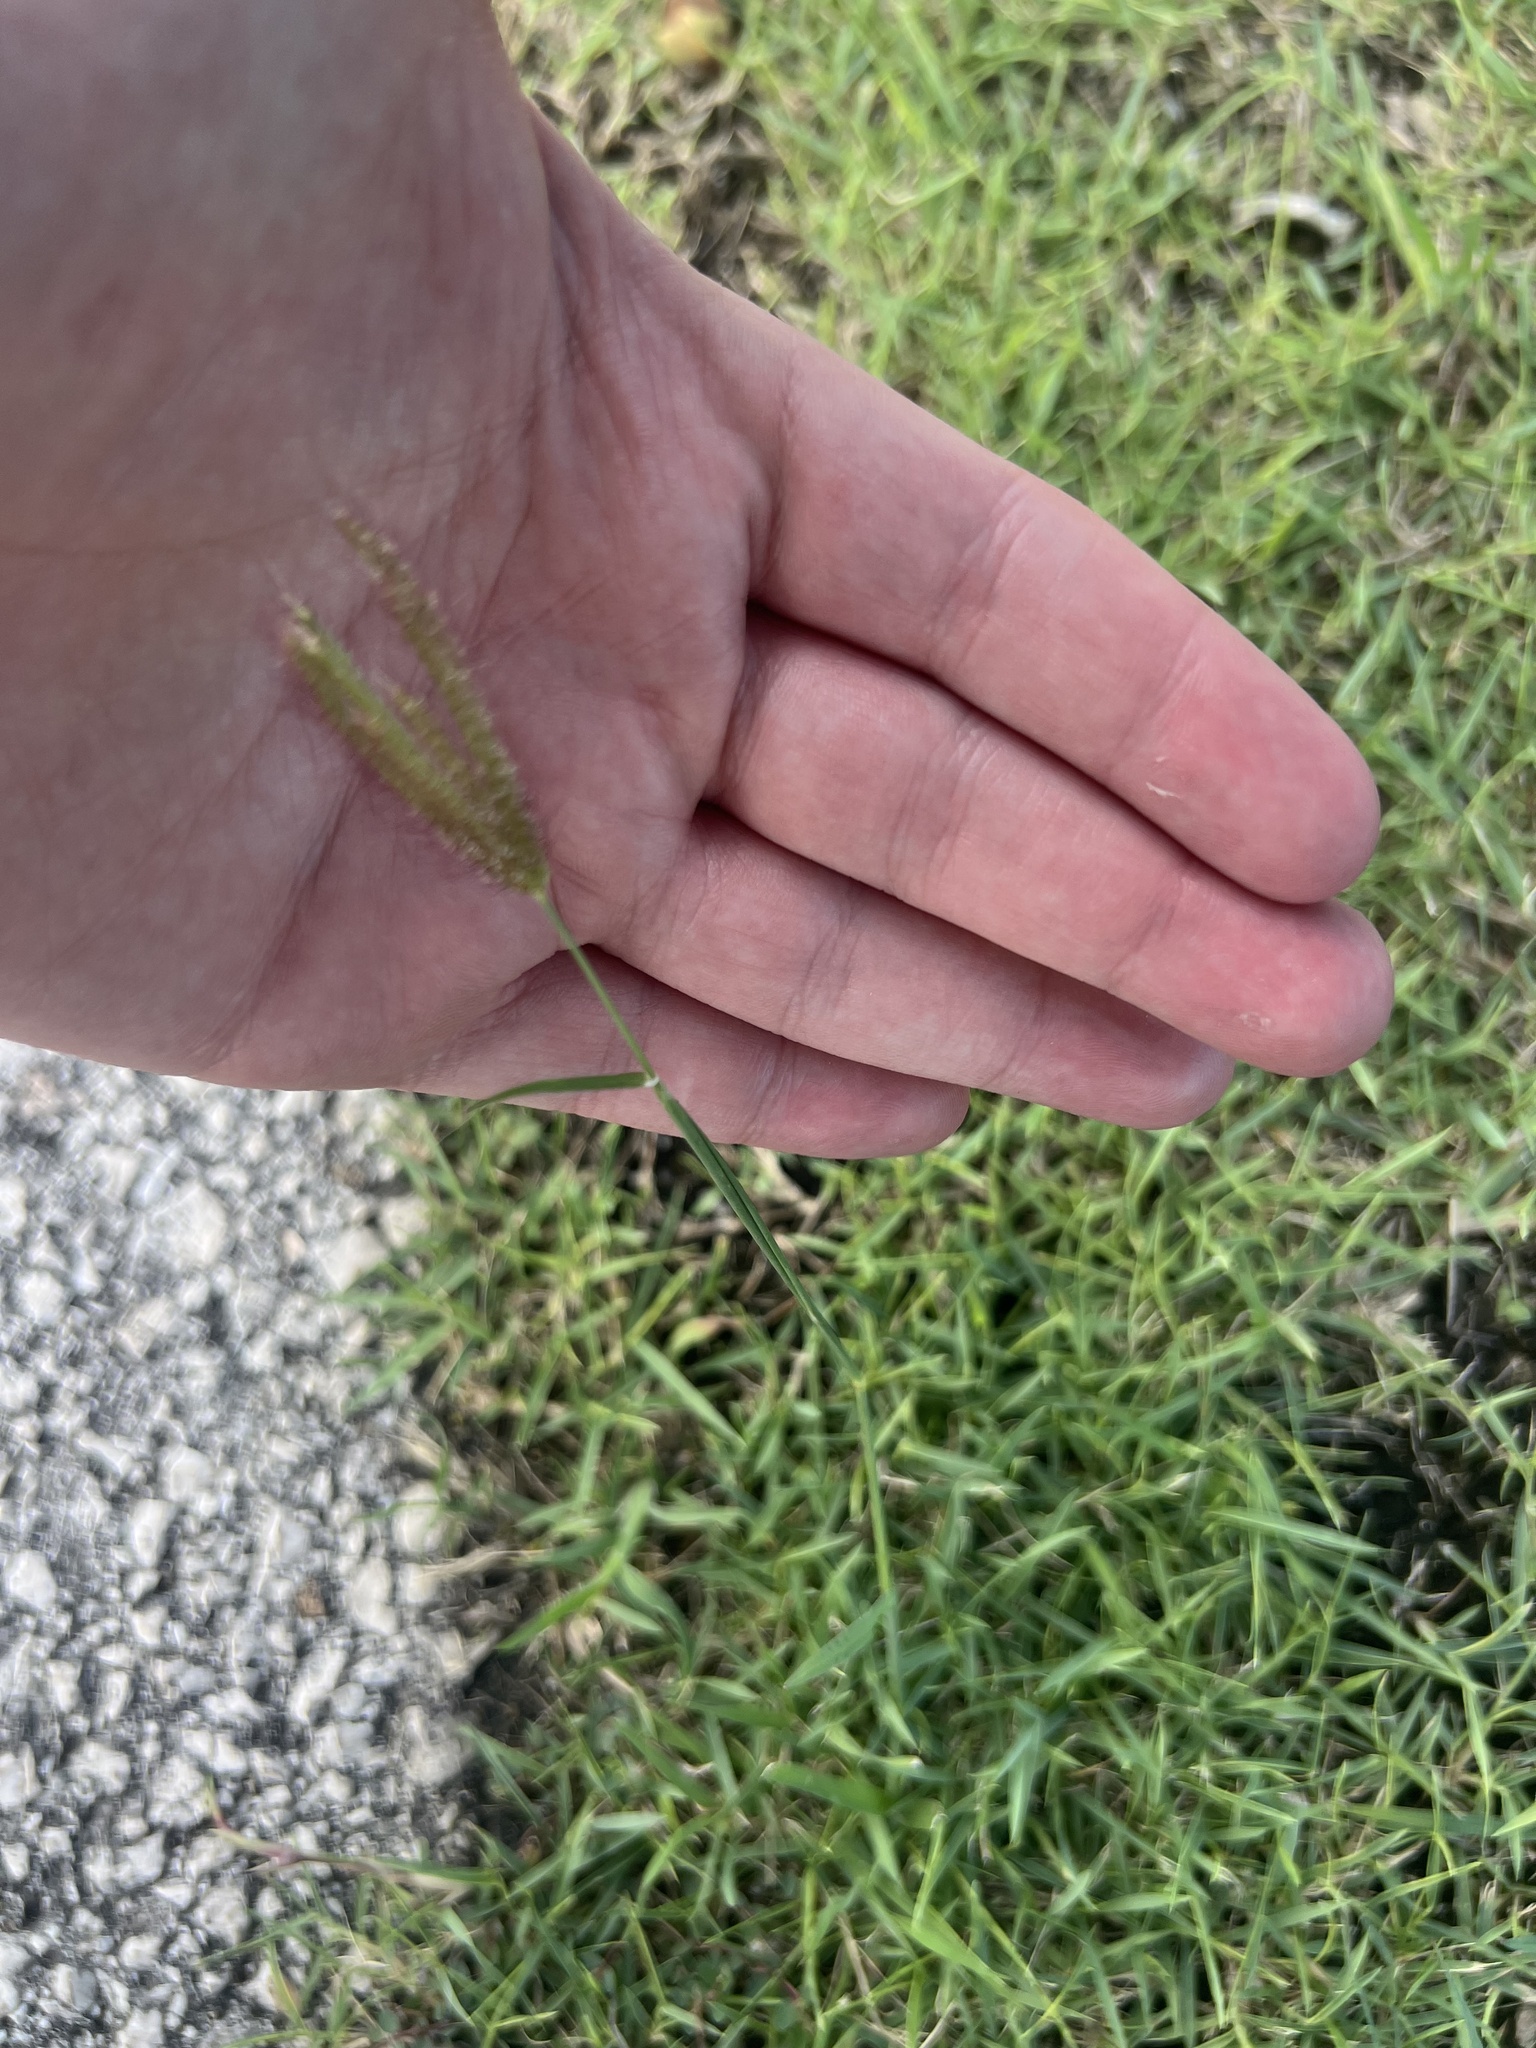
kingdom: Plantae
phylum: Tracheophyta
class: Liliopsida
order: Poales
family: Poaceae
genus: Chloris
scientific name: Chloris barbata
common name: Swollen fingergrass
